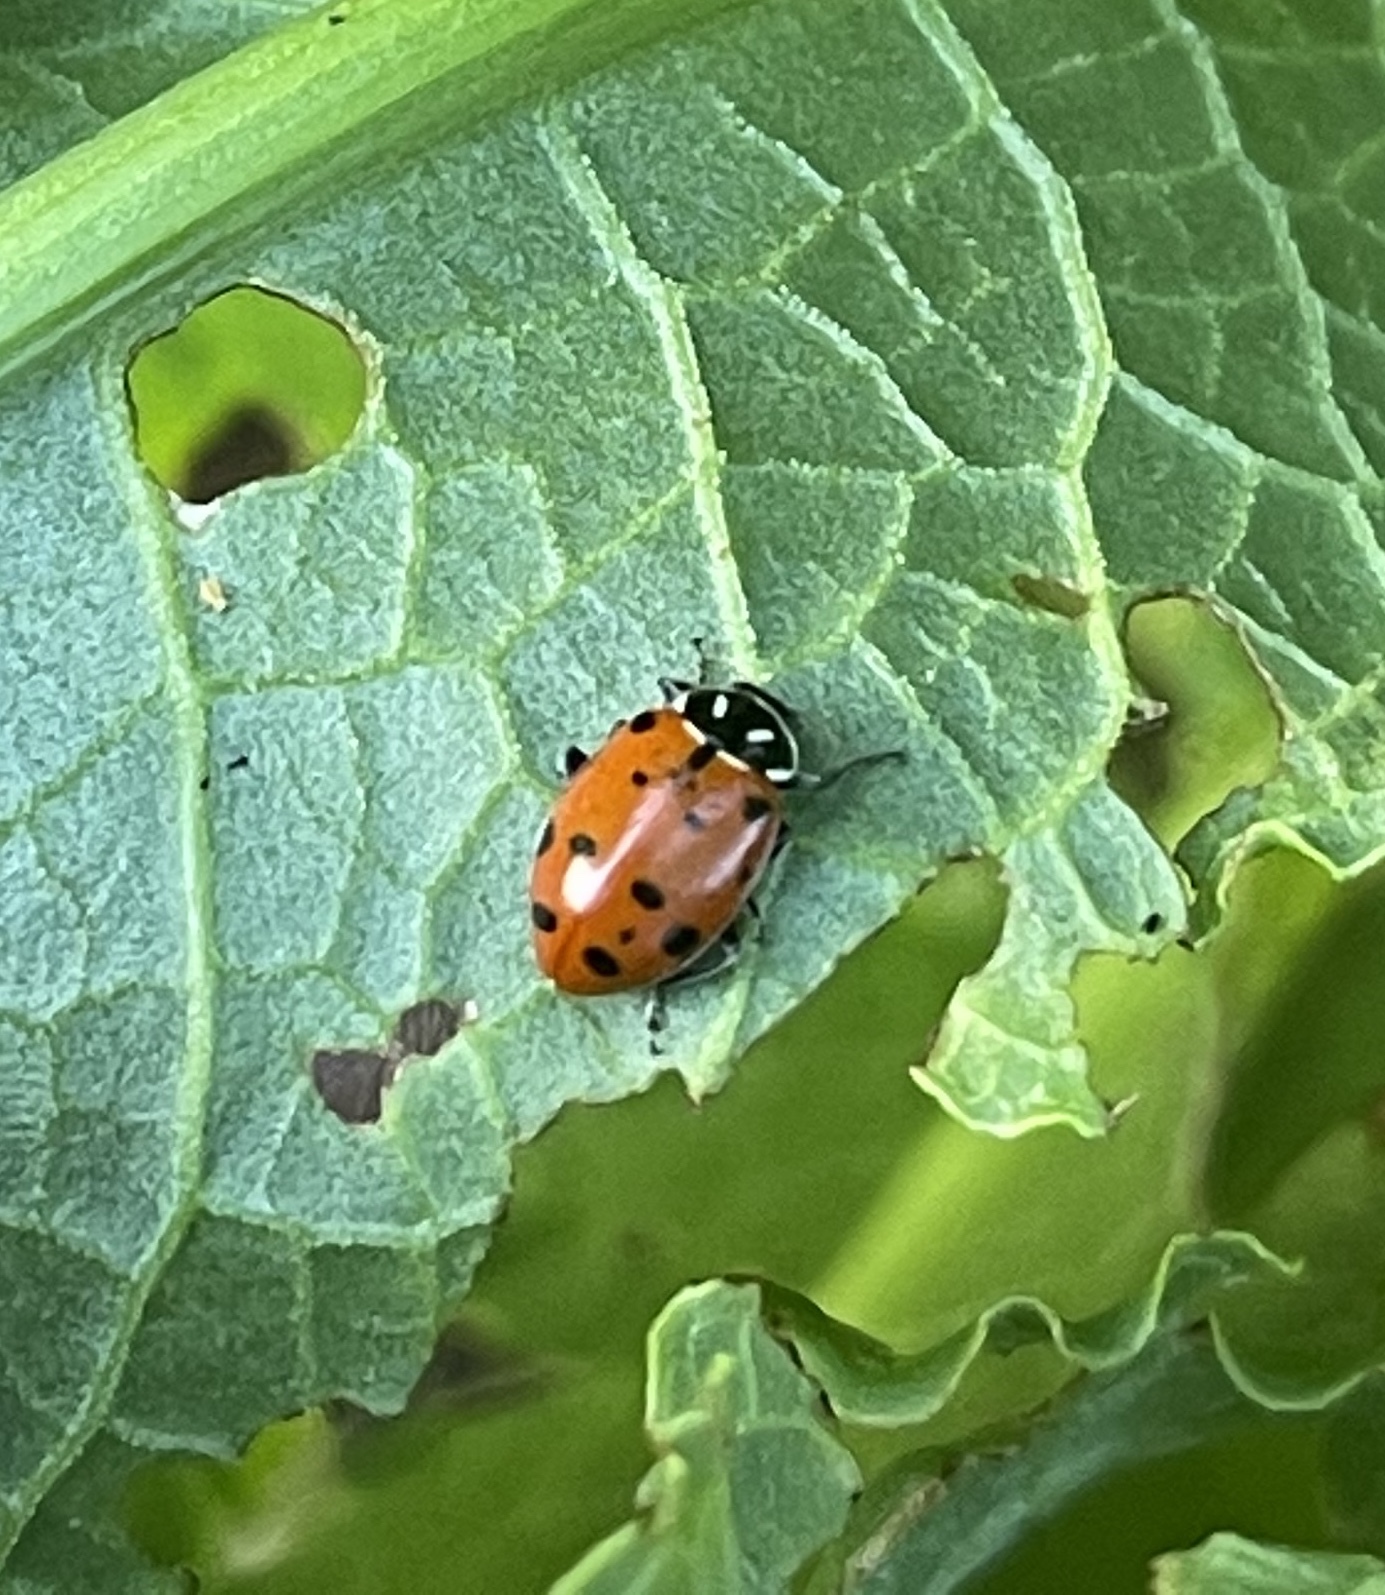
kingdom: Animalia
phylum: Arthropoda
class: Insecta
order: Coleoptera
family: Coccinellidae
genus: Hippodamia
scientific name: Hippodamia convergens
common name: Convergent lady beetle
